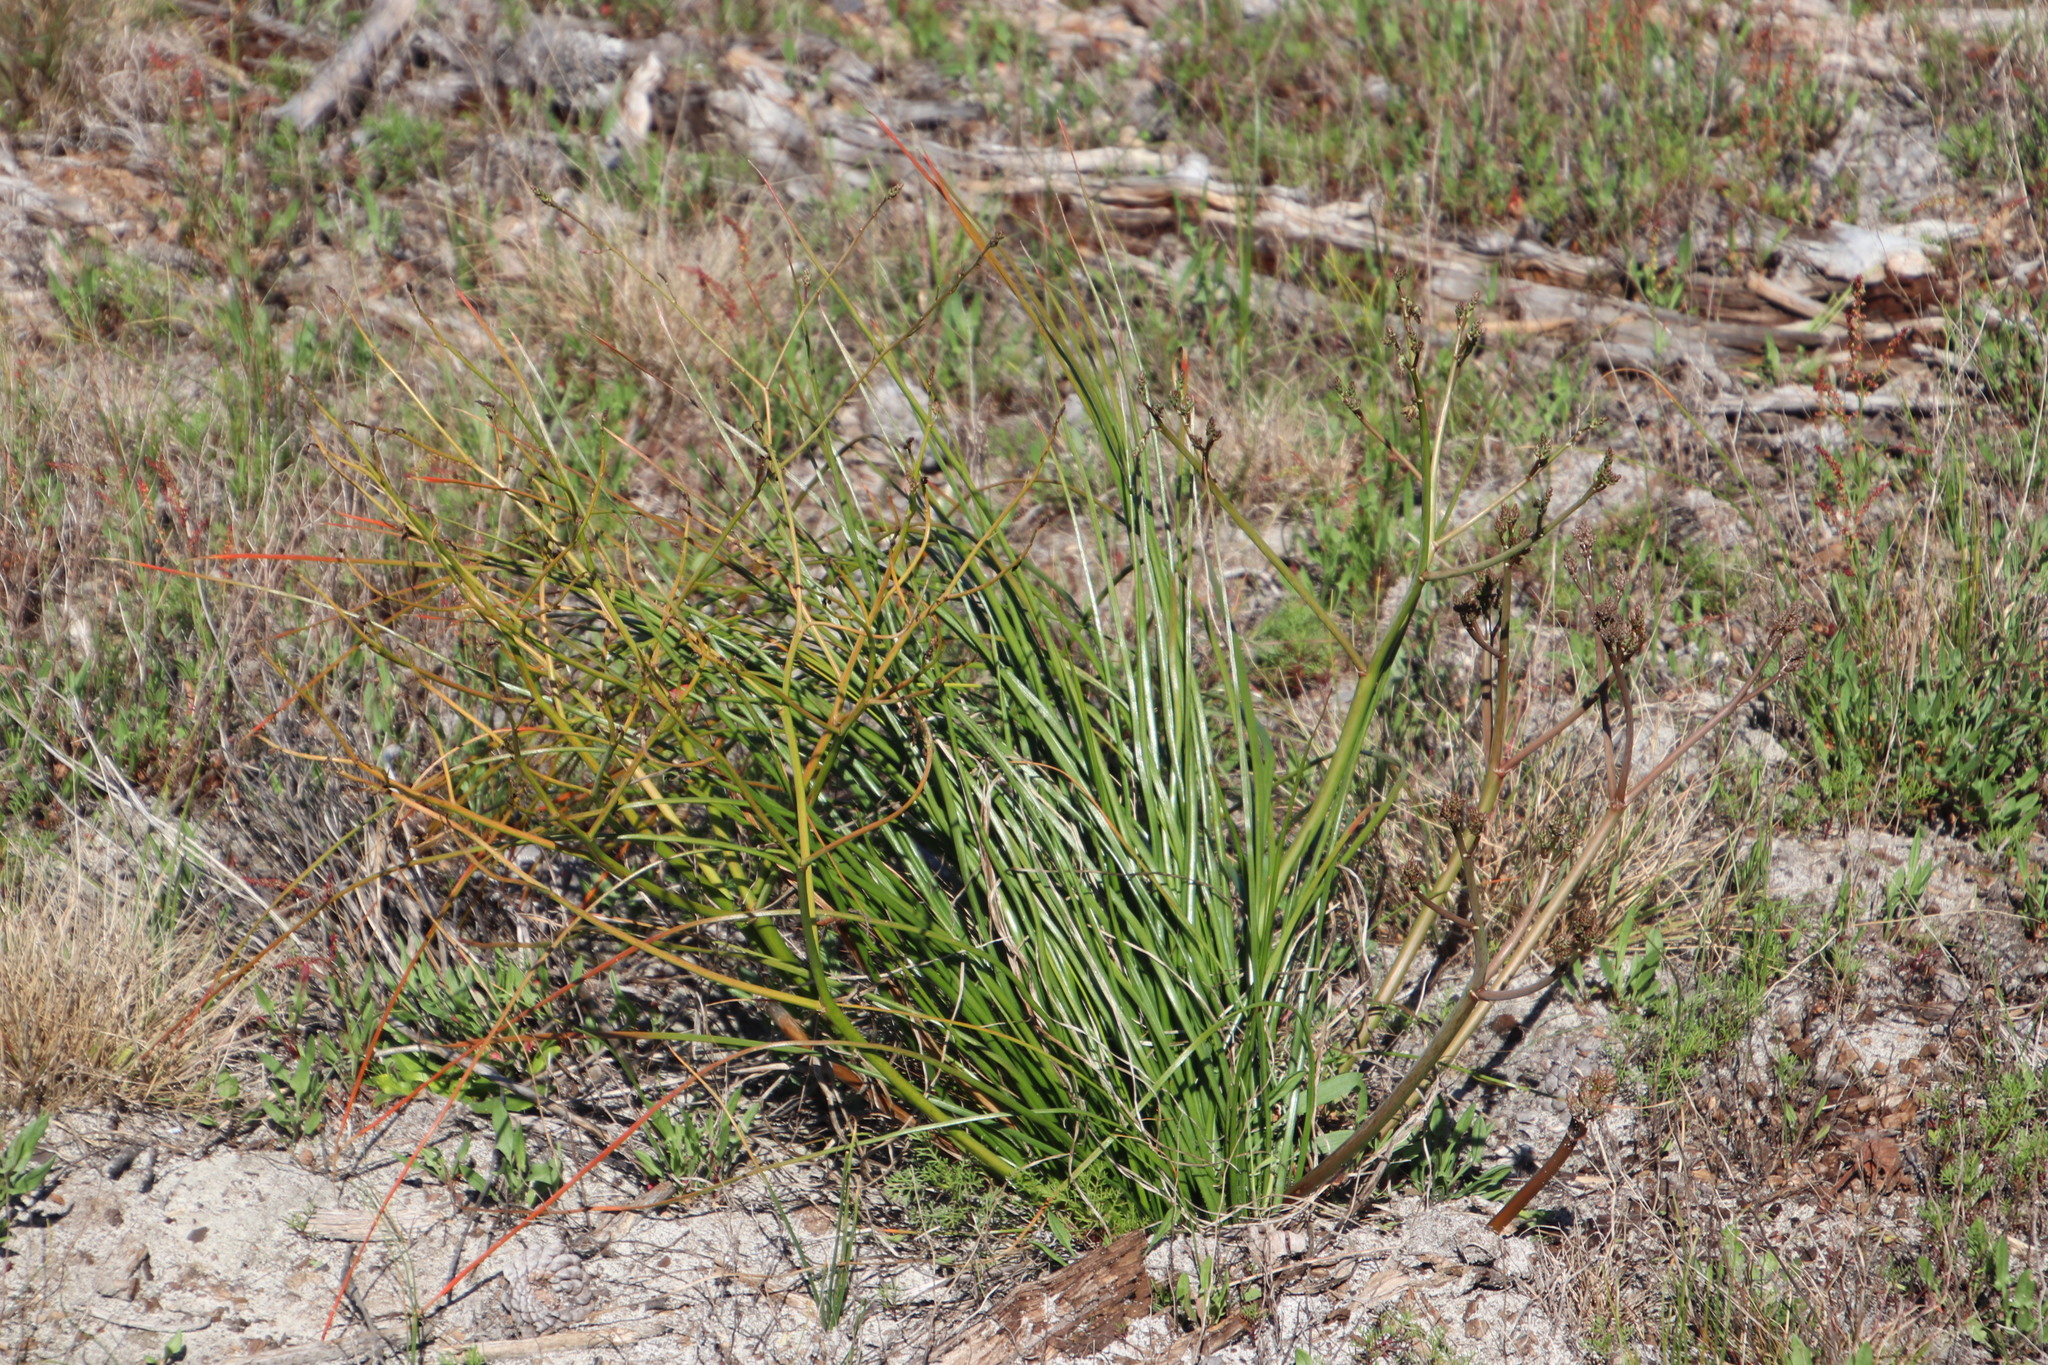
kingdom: Plantae
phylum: Tracheophyta
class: Liliopsida
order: Asparagales
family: Asphodelaceae
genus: Trachyandra
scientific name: Trachyandra divaricata
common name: Dune onionweed
